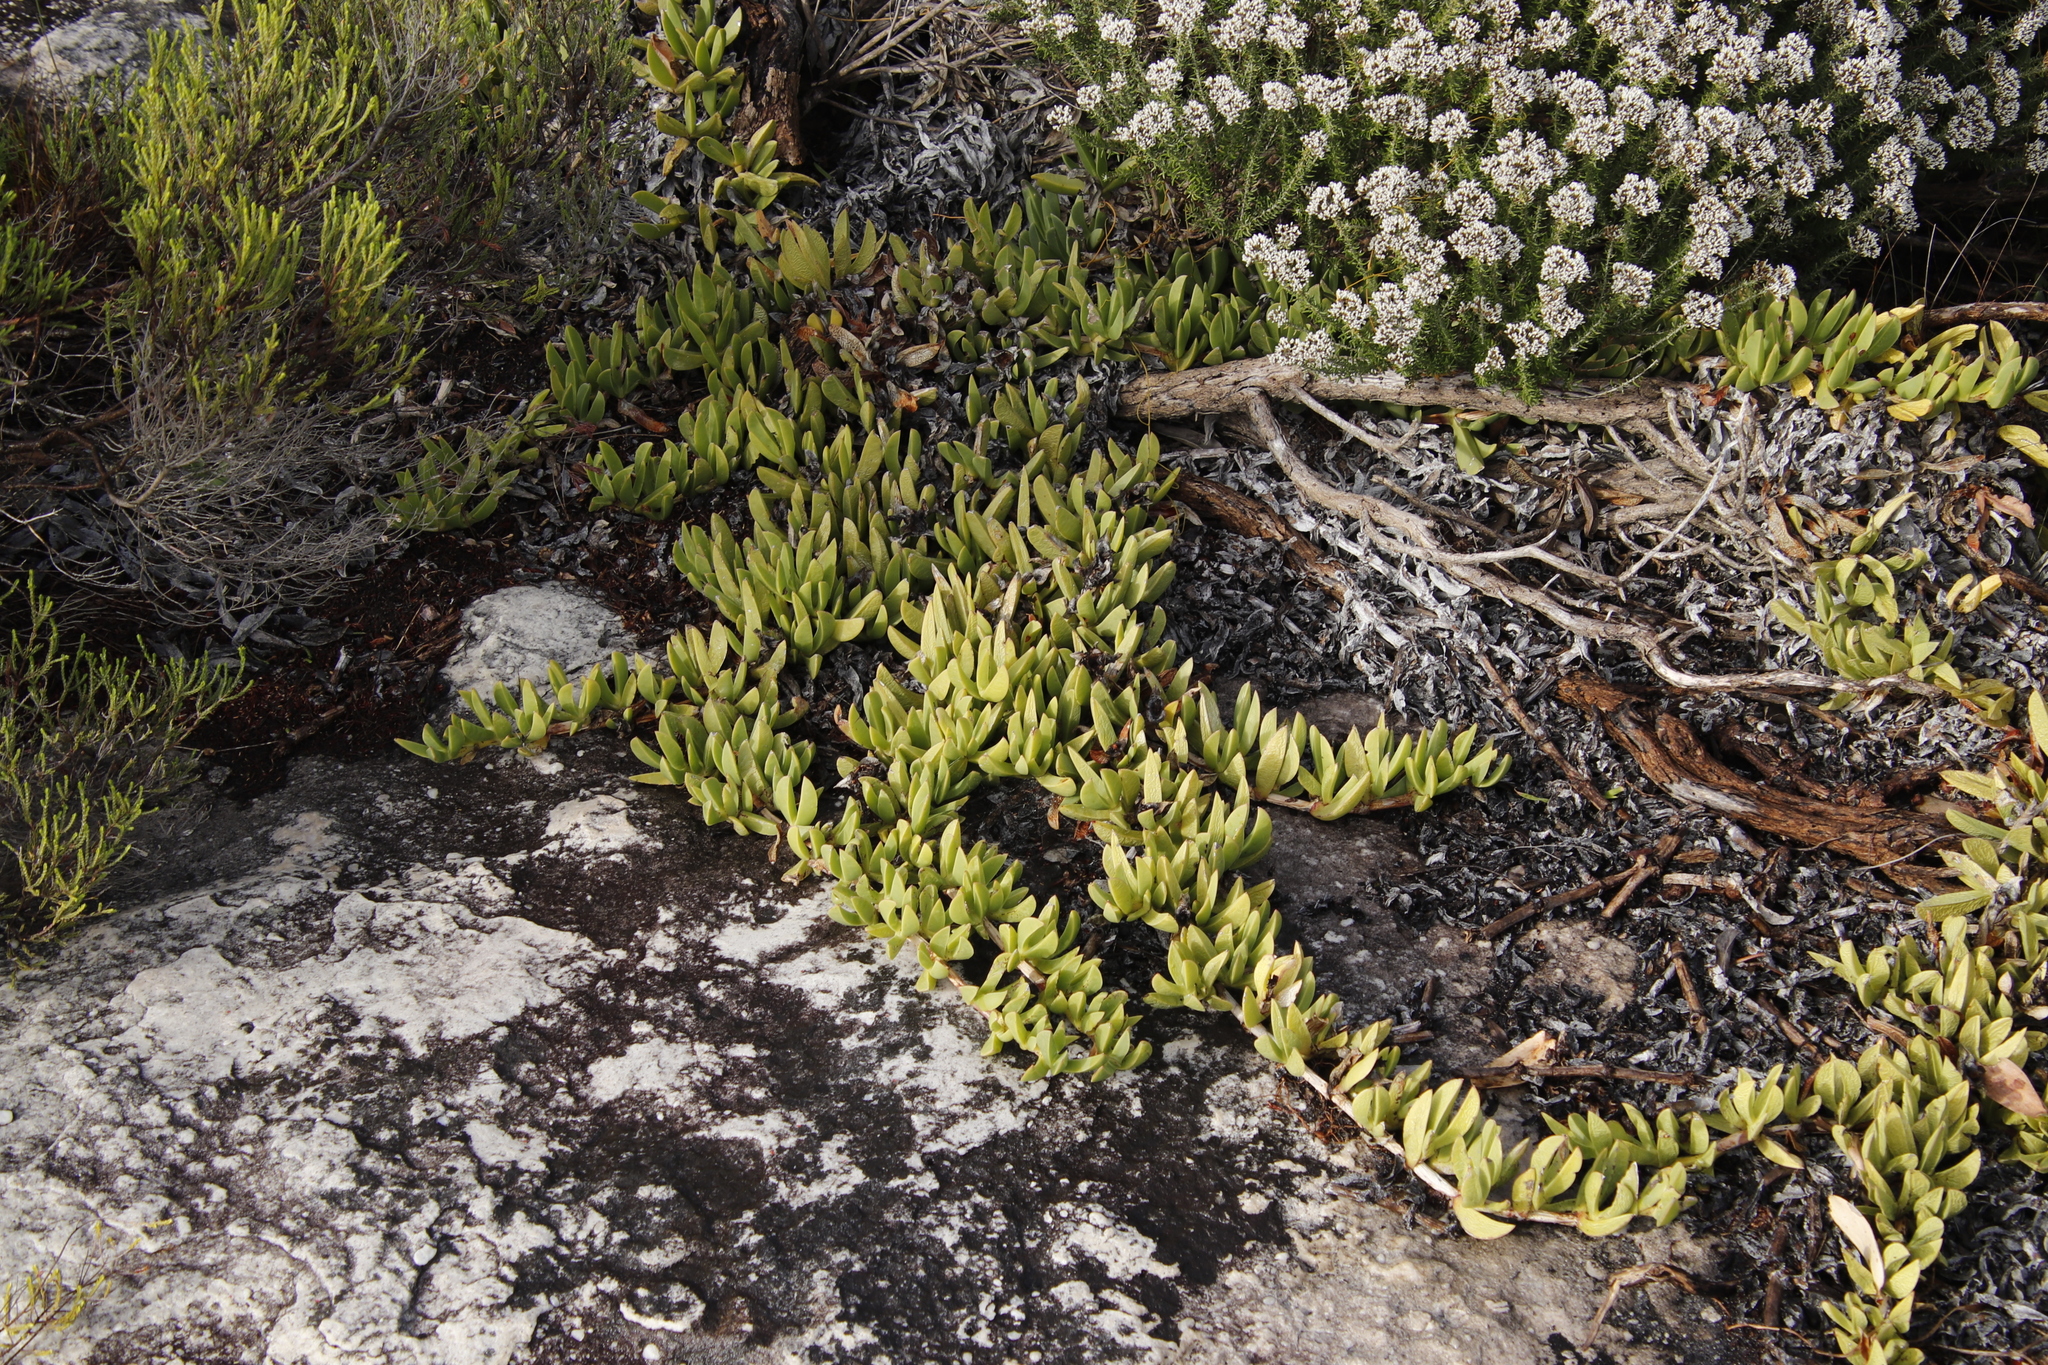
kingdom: Plantae
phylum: Tracheophyta
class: Magnoliopsida
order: Caryophyllales
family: Aizoaceae
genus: Carpobrotus
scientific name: Carpobrotus acinaciformis
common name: Sally-my-handsome
